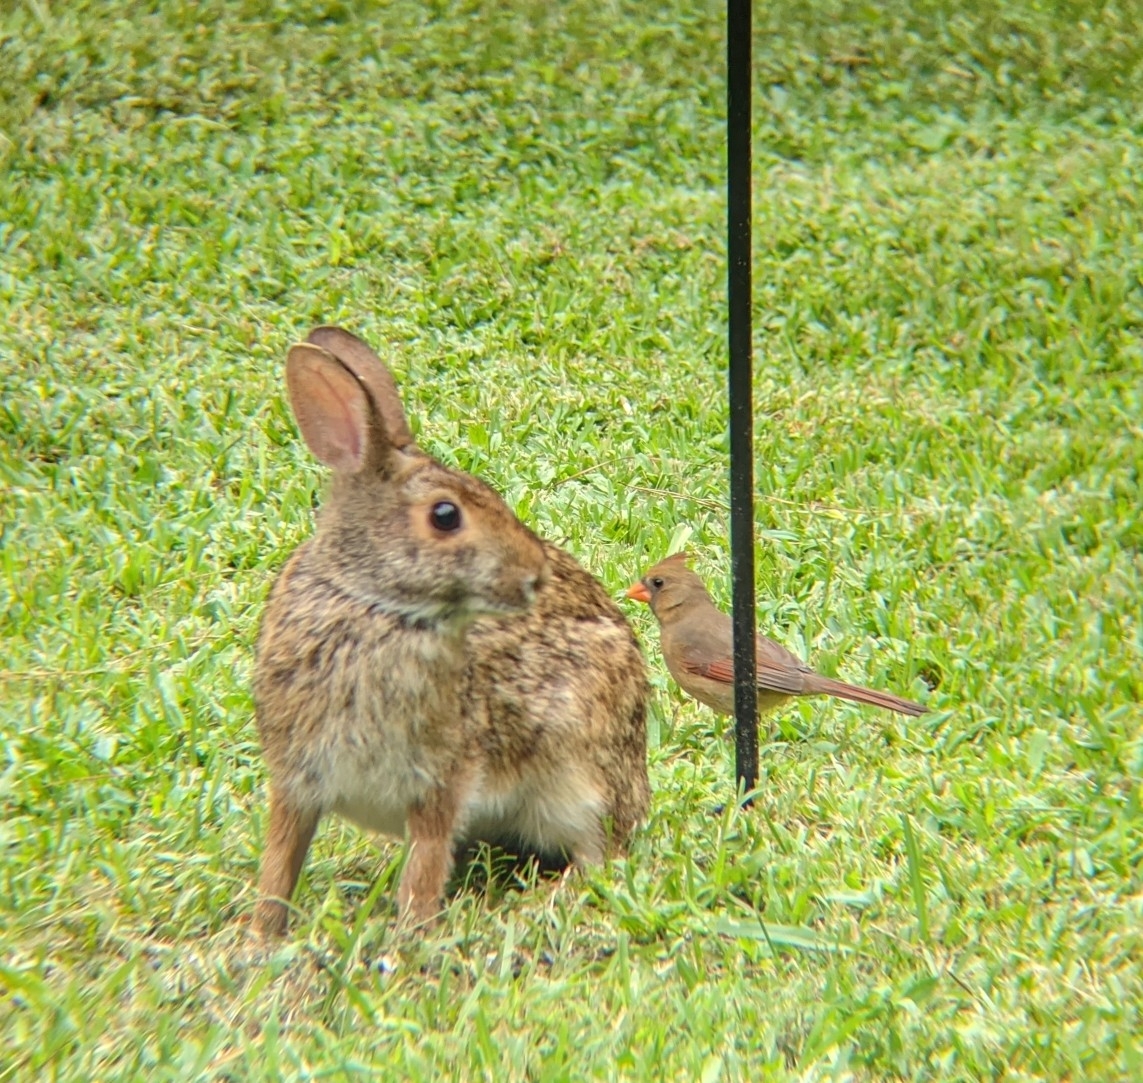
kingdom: Animalia
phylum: Chordata
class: Mammalia
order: Lagomorpha
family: Leporidae
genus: Sylvilagus
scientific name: Sylvilagus aquaticus
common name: Swamp rabbit
